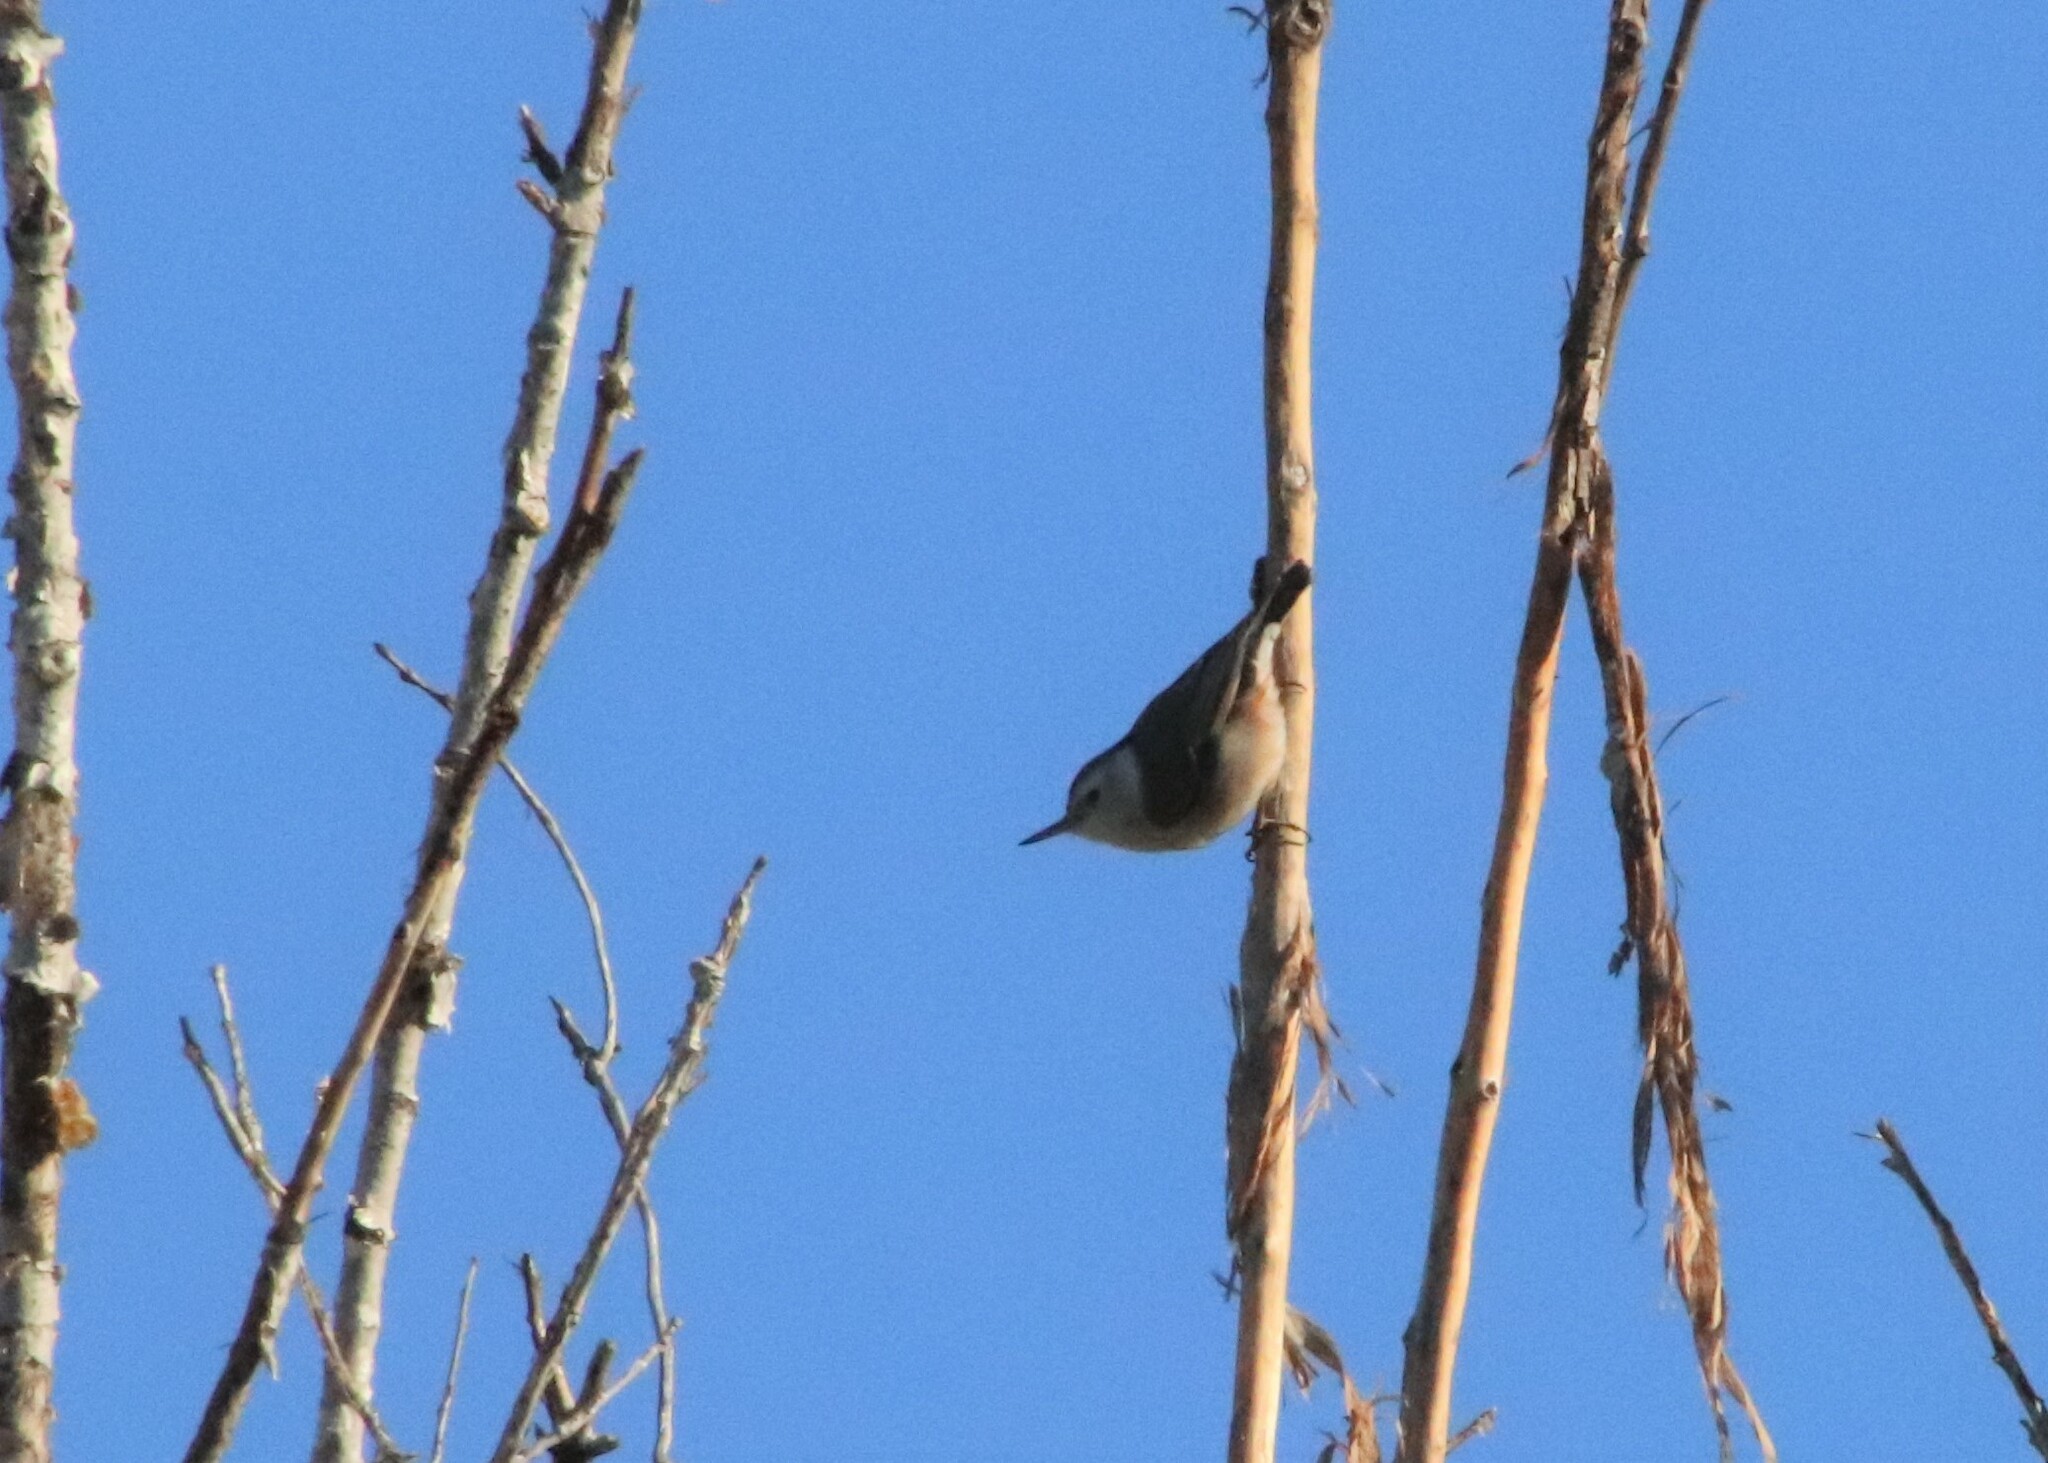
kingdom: Animalia
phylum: Chordata
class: Aves
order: Passeriformes
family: Sittidae
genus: Sitta
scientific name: Sitta carolinensis
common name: White-breasted nuthatch
